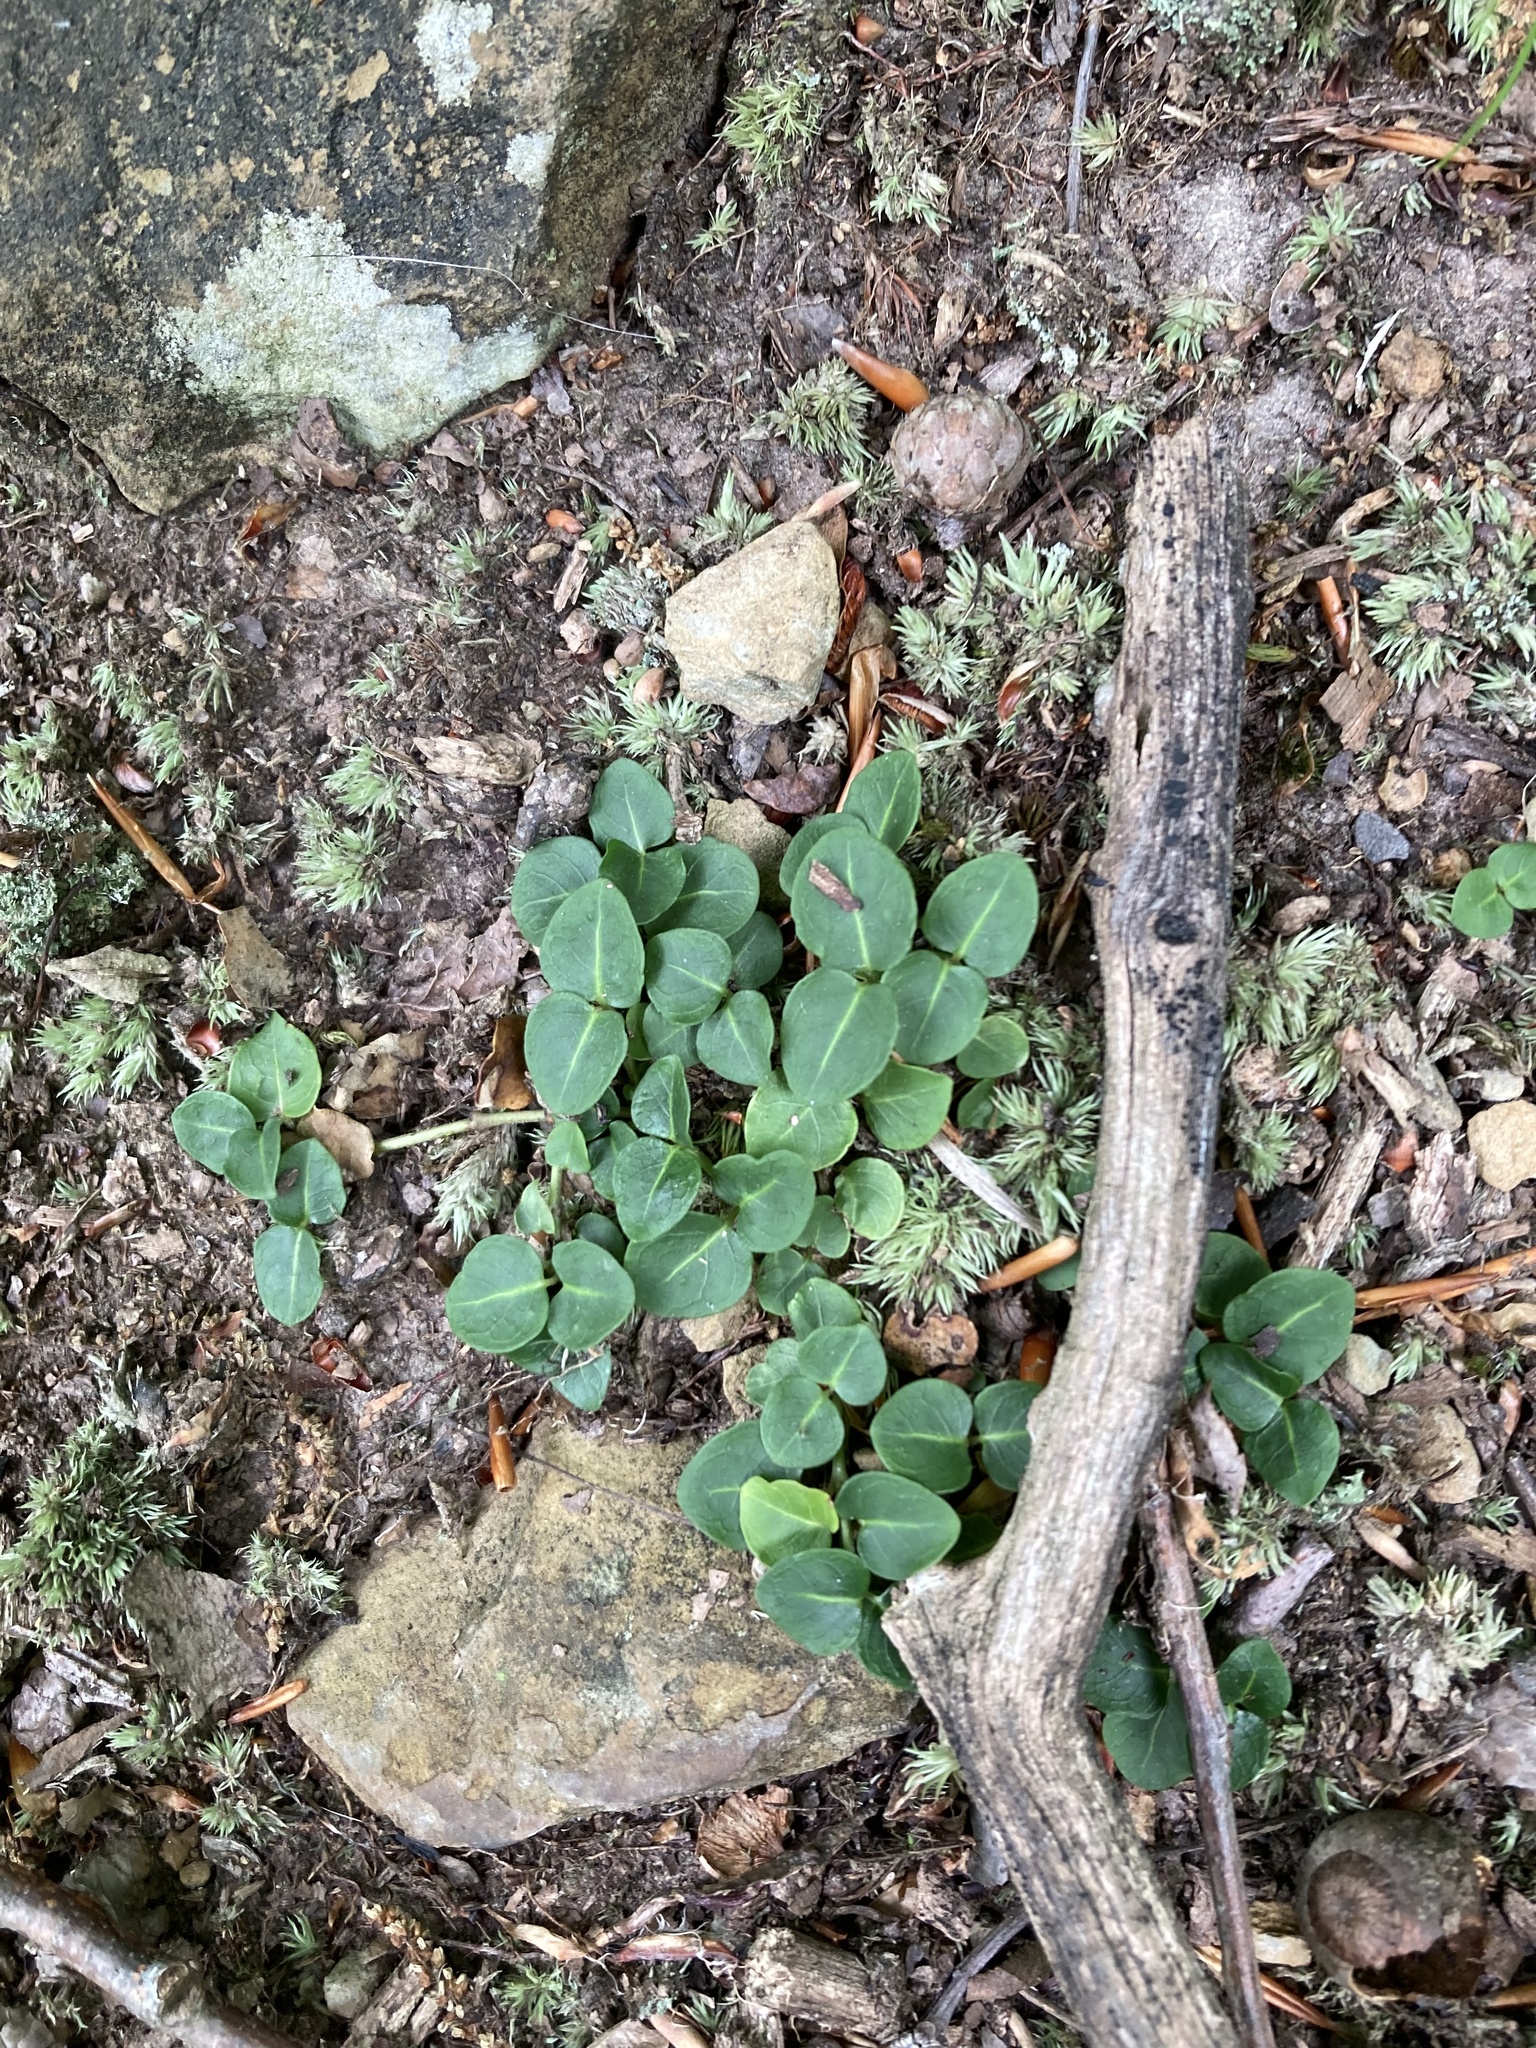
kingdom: Plantae
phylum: Tracheophyta
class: Magnoliopsida
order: Gentianales
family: Rubiaceae
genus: Mitchella
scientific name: Mitchella repens
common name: Partridge-berry
